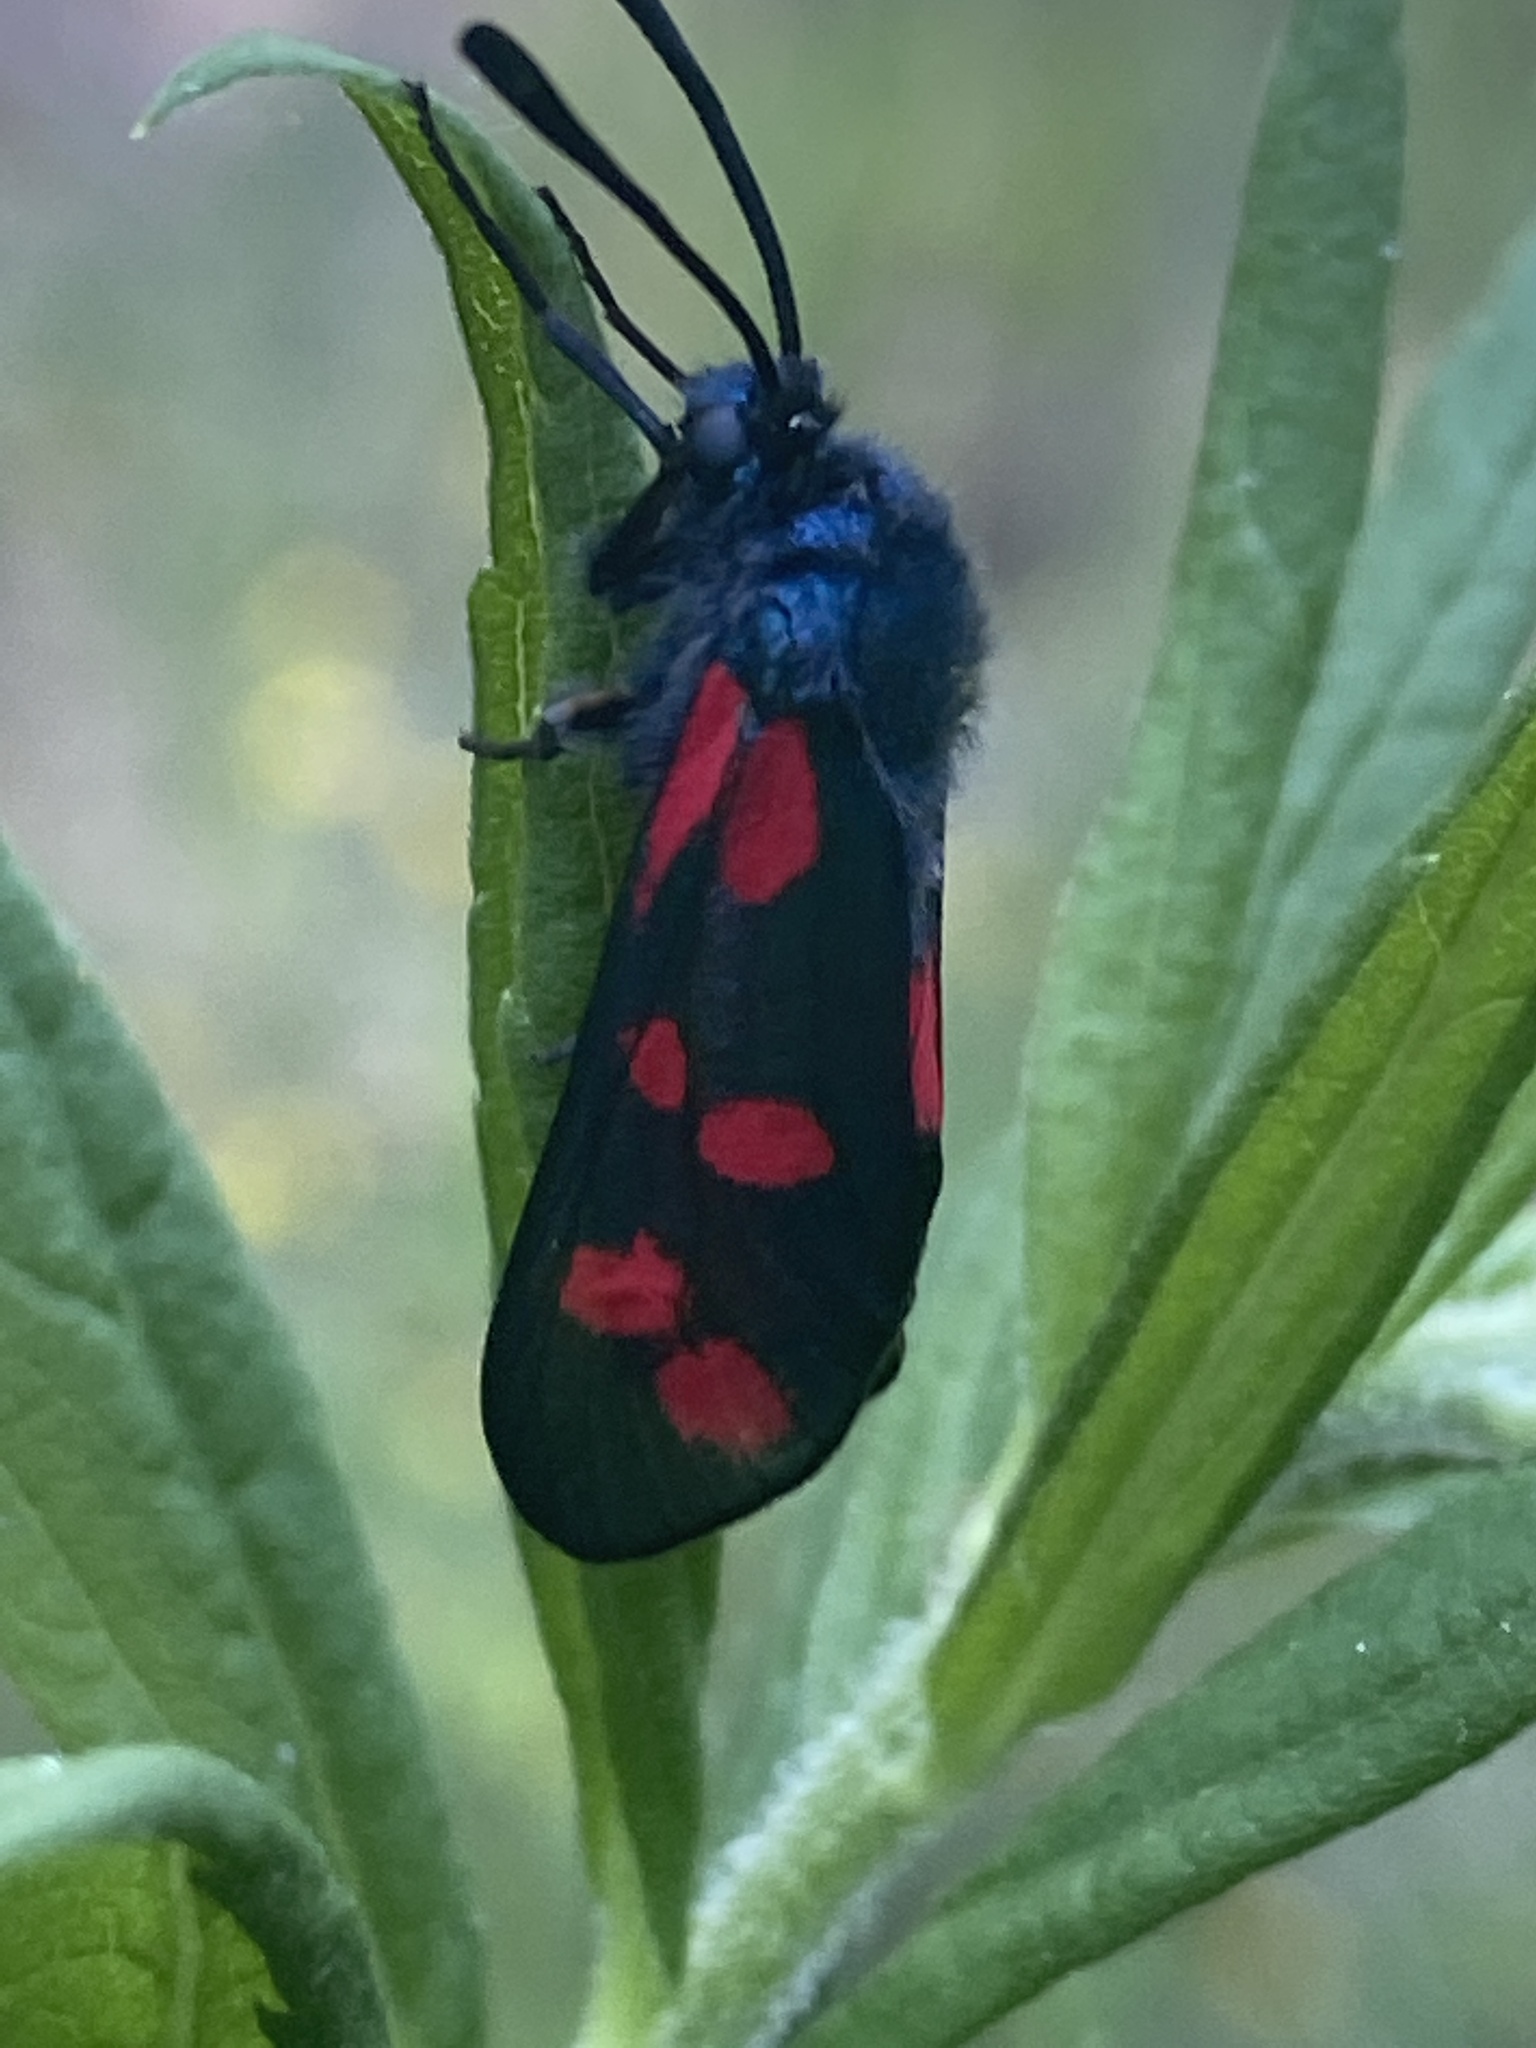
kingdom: Animalia
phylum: Arthropoda
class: Insecta
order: Lepidoptera
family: Zygaenidae
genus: Zygaena
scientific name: Zygaena filipendulae
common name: Six-spot burnet
